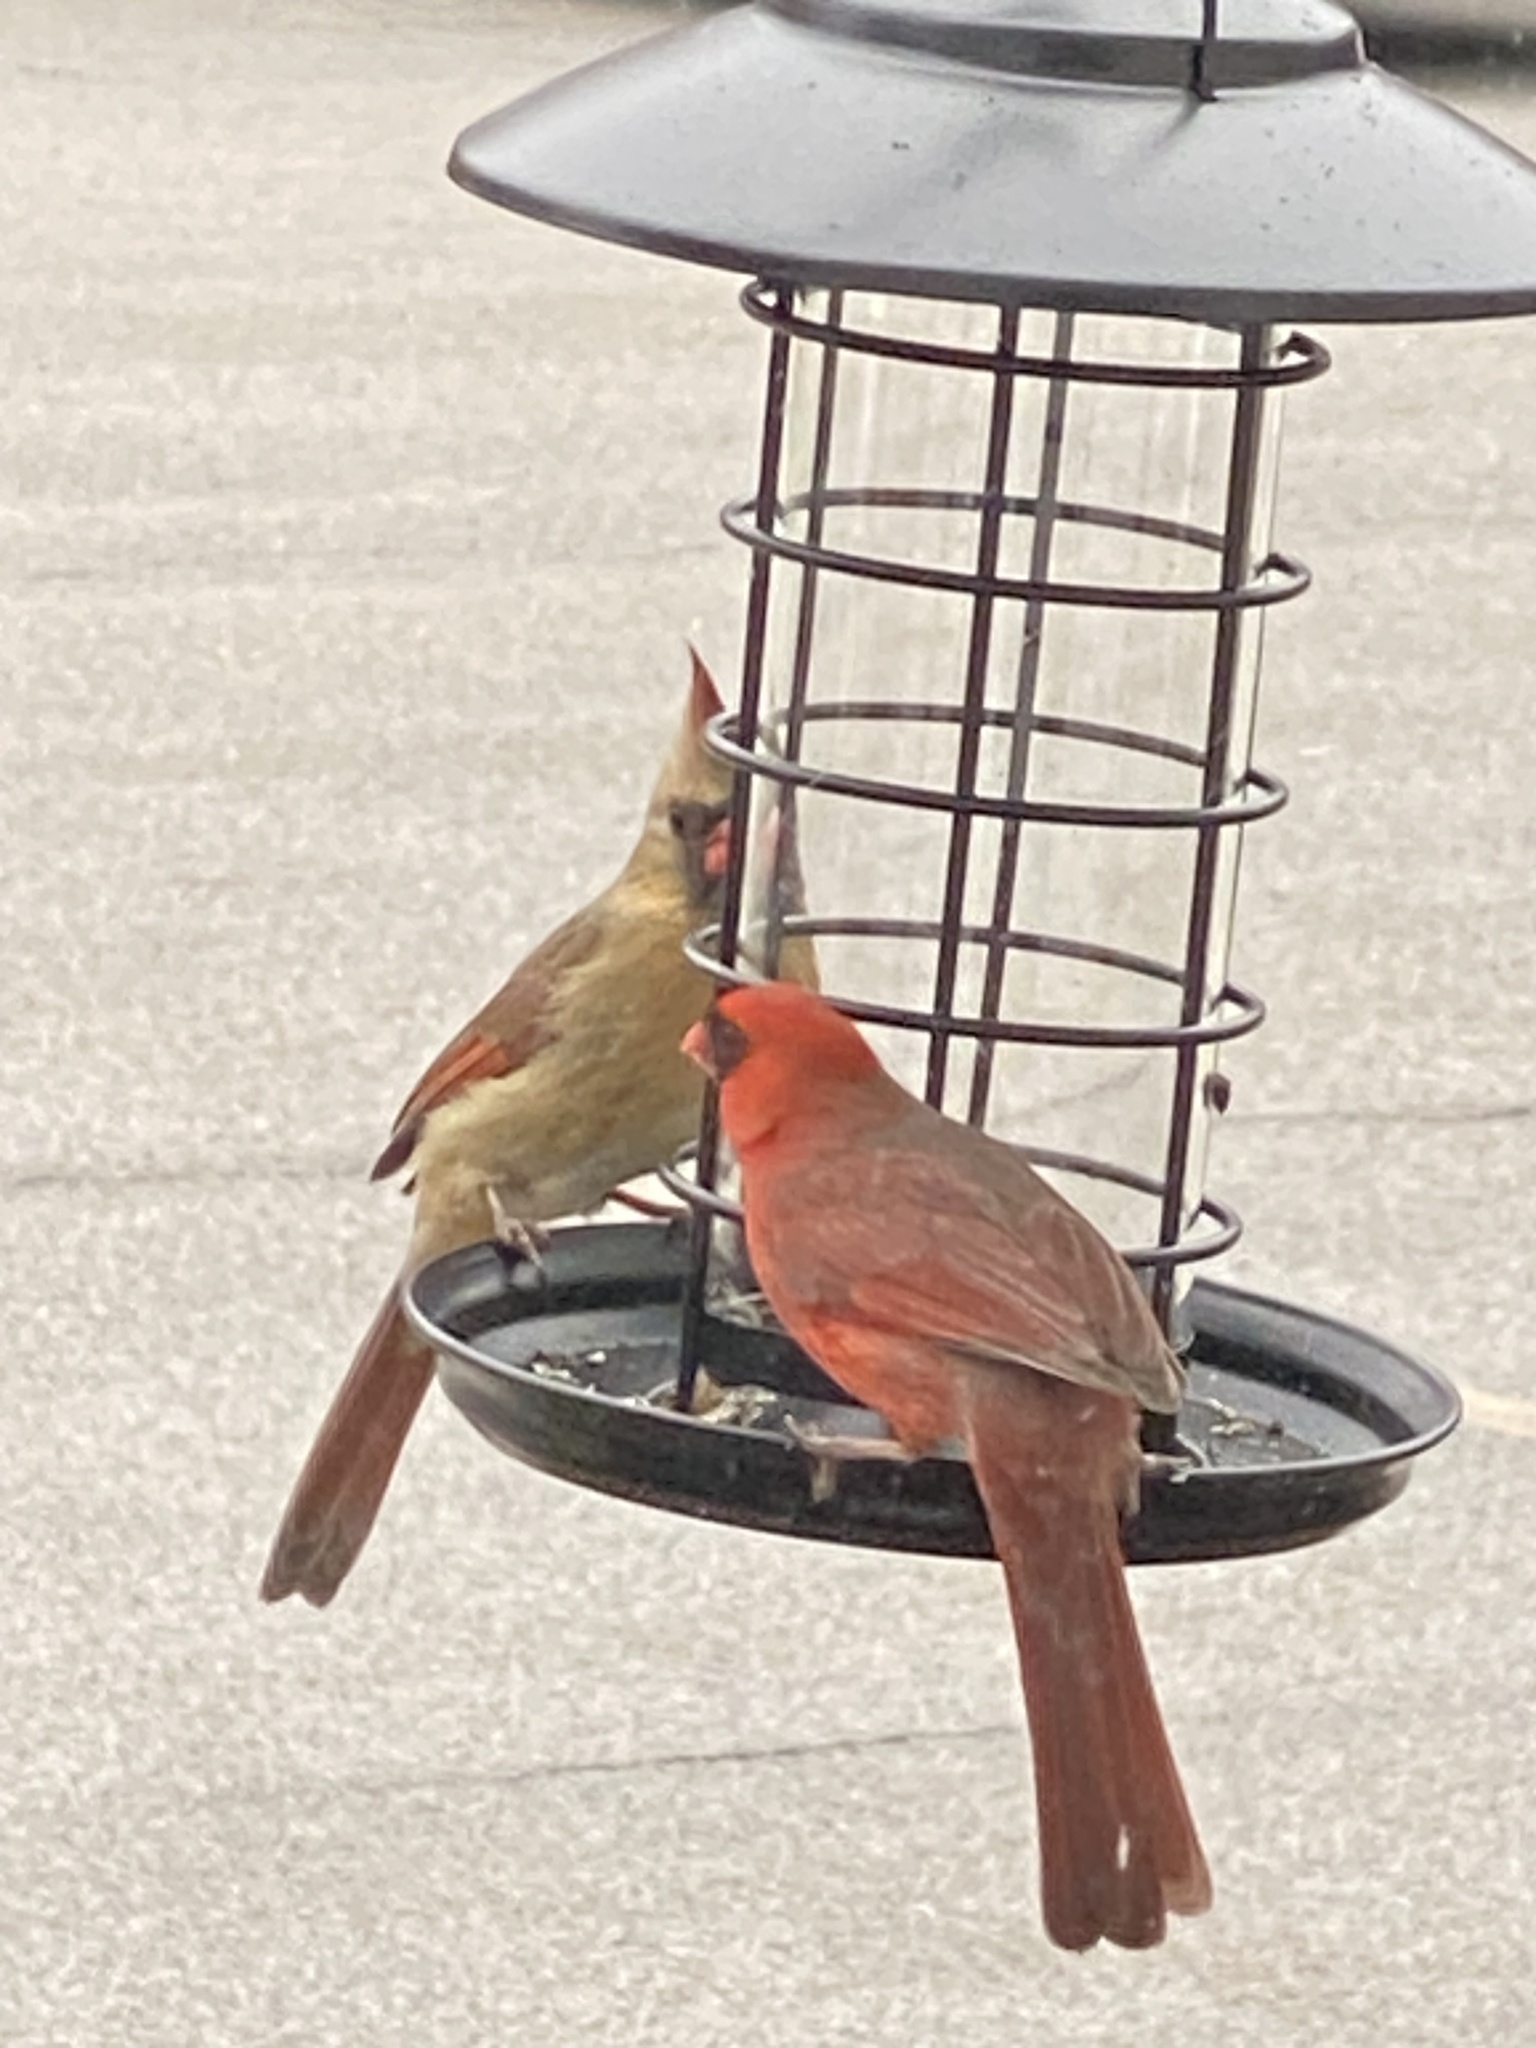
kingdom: Animalia
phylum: Chordata
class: Aves
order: Passeriformes
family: Cardinalidae
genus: Cardinalis
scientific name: Cardinalis cardinalis
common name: Northern cardinal
